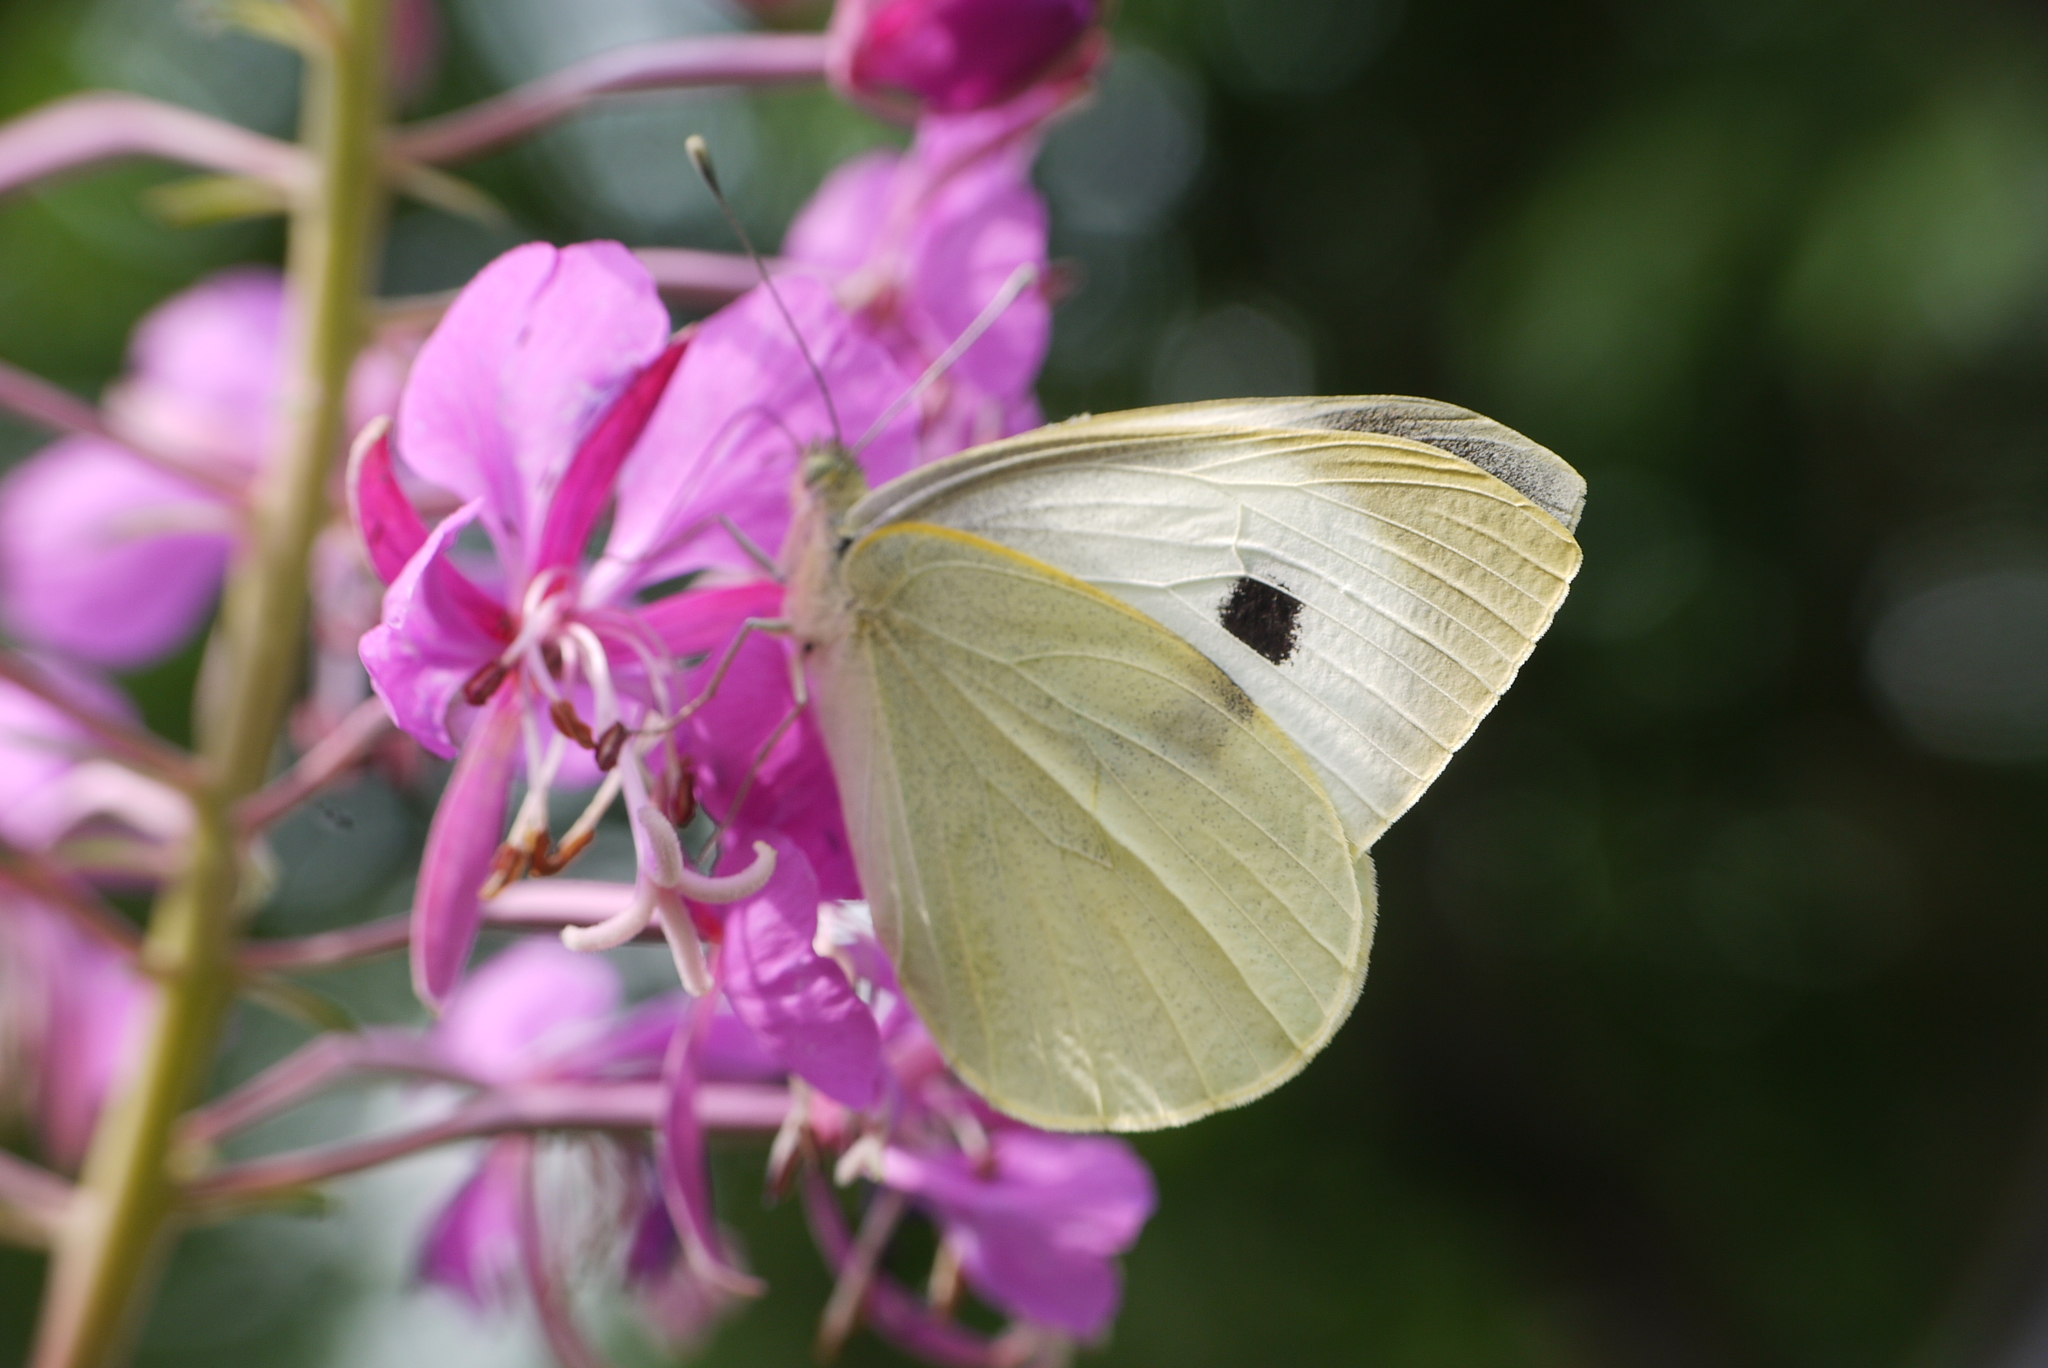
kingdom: Animalia
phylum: Arthropoda
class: Insecta
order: Lepidoptera
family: Pieridae
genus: Pieris
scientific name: Pieris brassicae
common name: Large white
